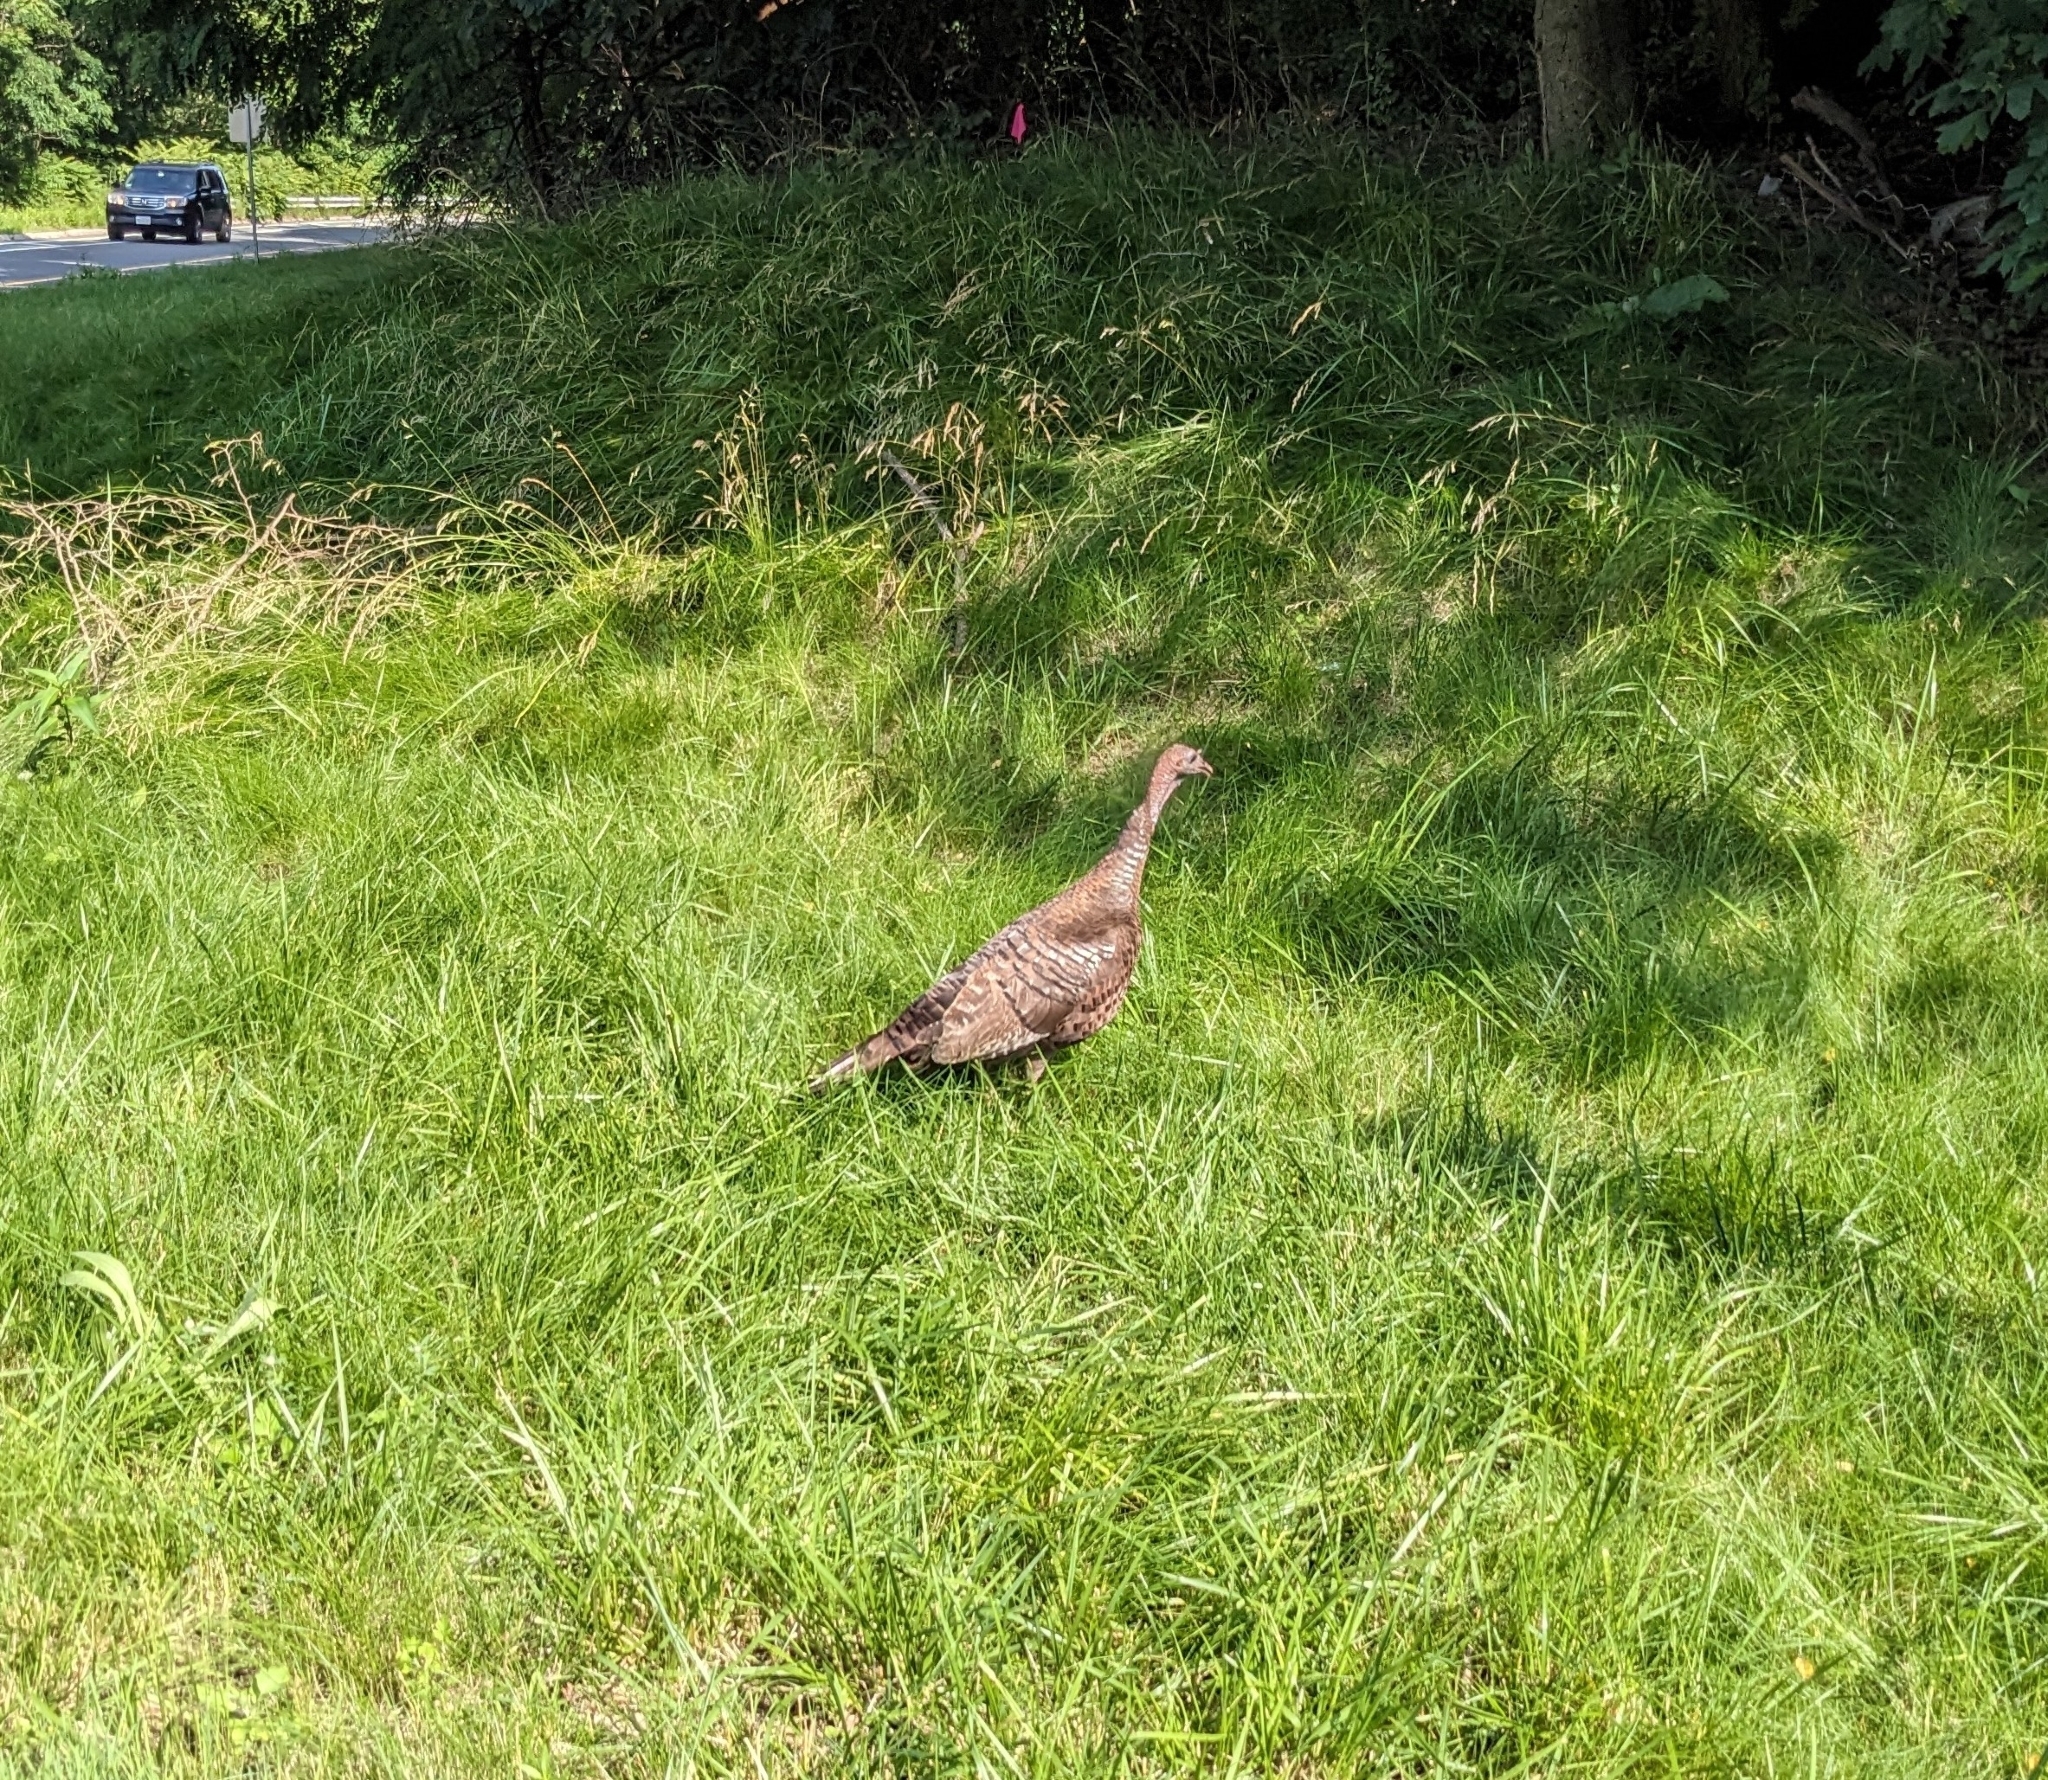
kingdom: Animalia
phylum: Chordata
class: Aves
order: Galliformes
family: Phasianidae
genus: Meleagris
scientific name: Meleagris gallopavo
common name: Wild turkey
